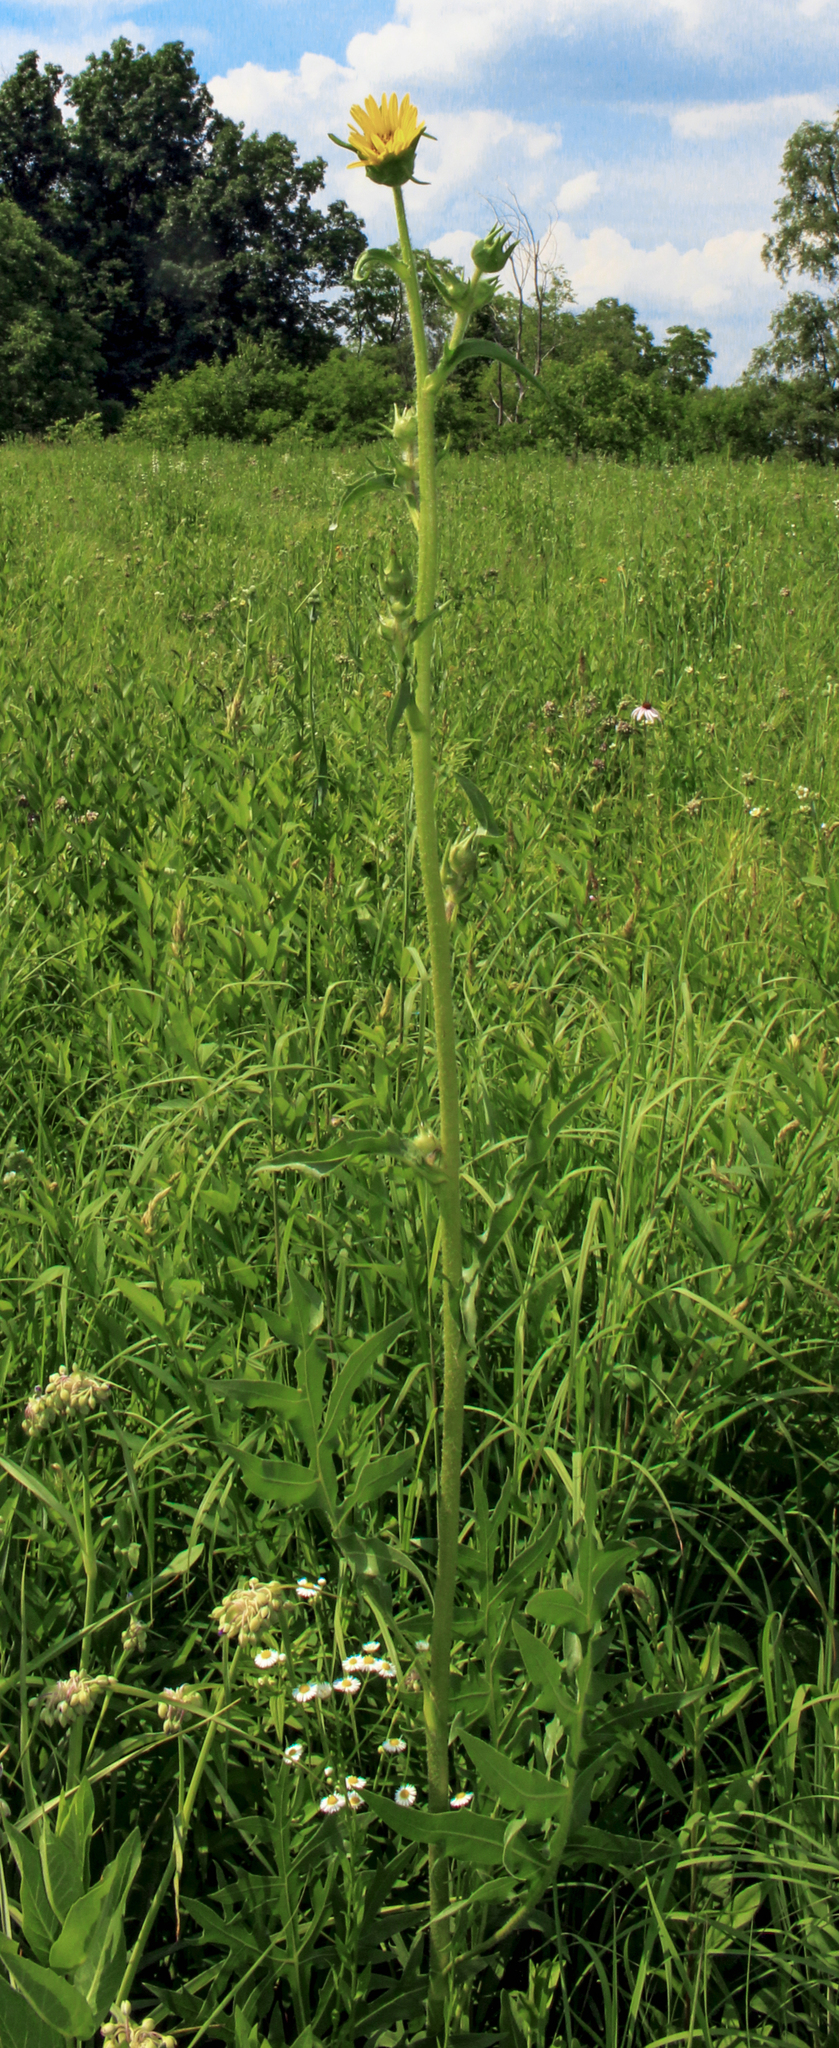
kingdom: Plantae
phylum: Tracheophyta
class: Magnoliopsida
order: Asterales
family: Asteraceae
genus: Silphium
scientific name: Silphium laciniatum
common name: Polarplant
